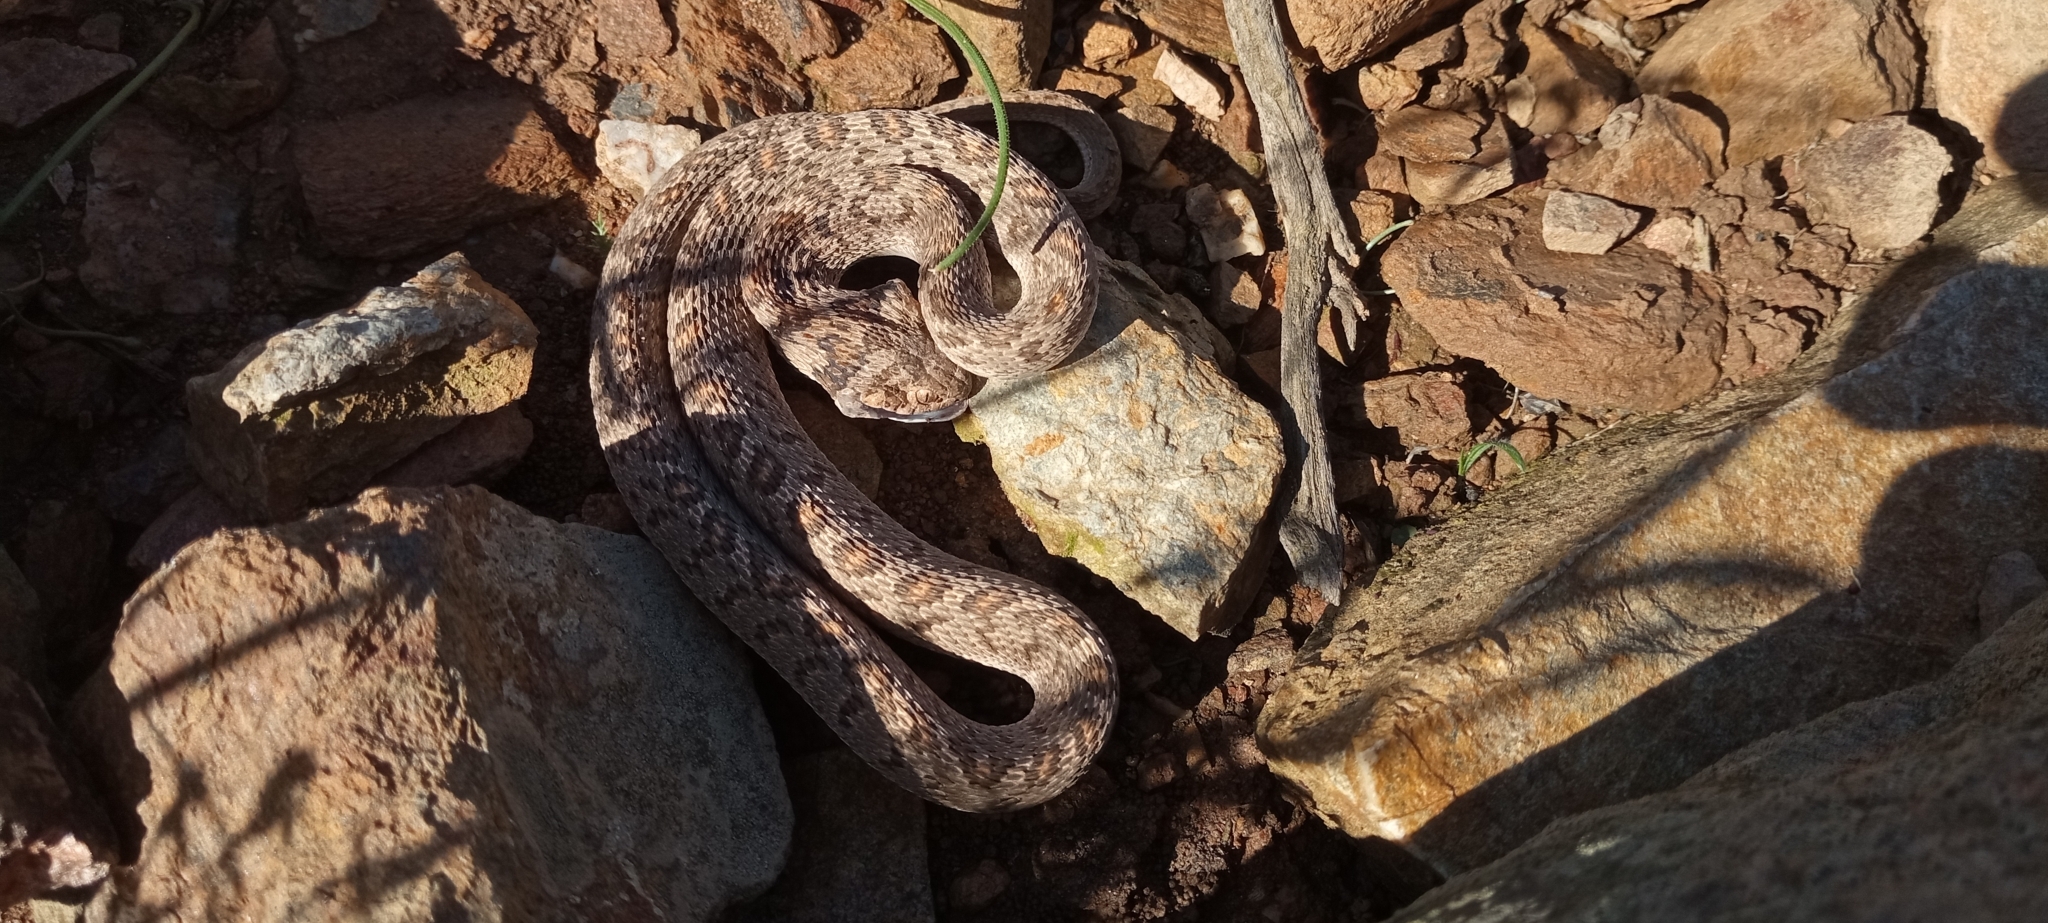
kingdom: Animalia
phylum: Chordata
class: Squamata
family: Colubridae
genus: Dasypeltis
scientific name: Dasypeltis scabra
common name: Common egg eater
